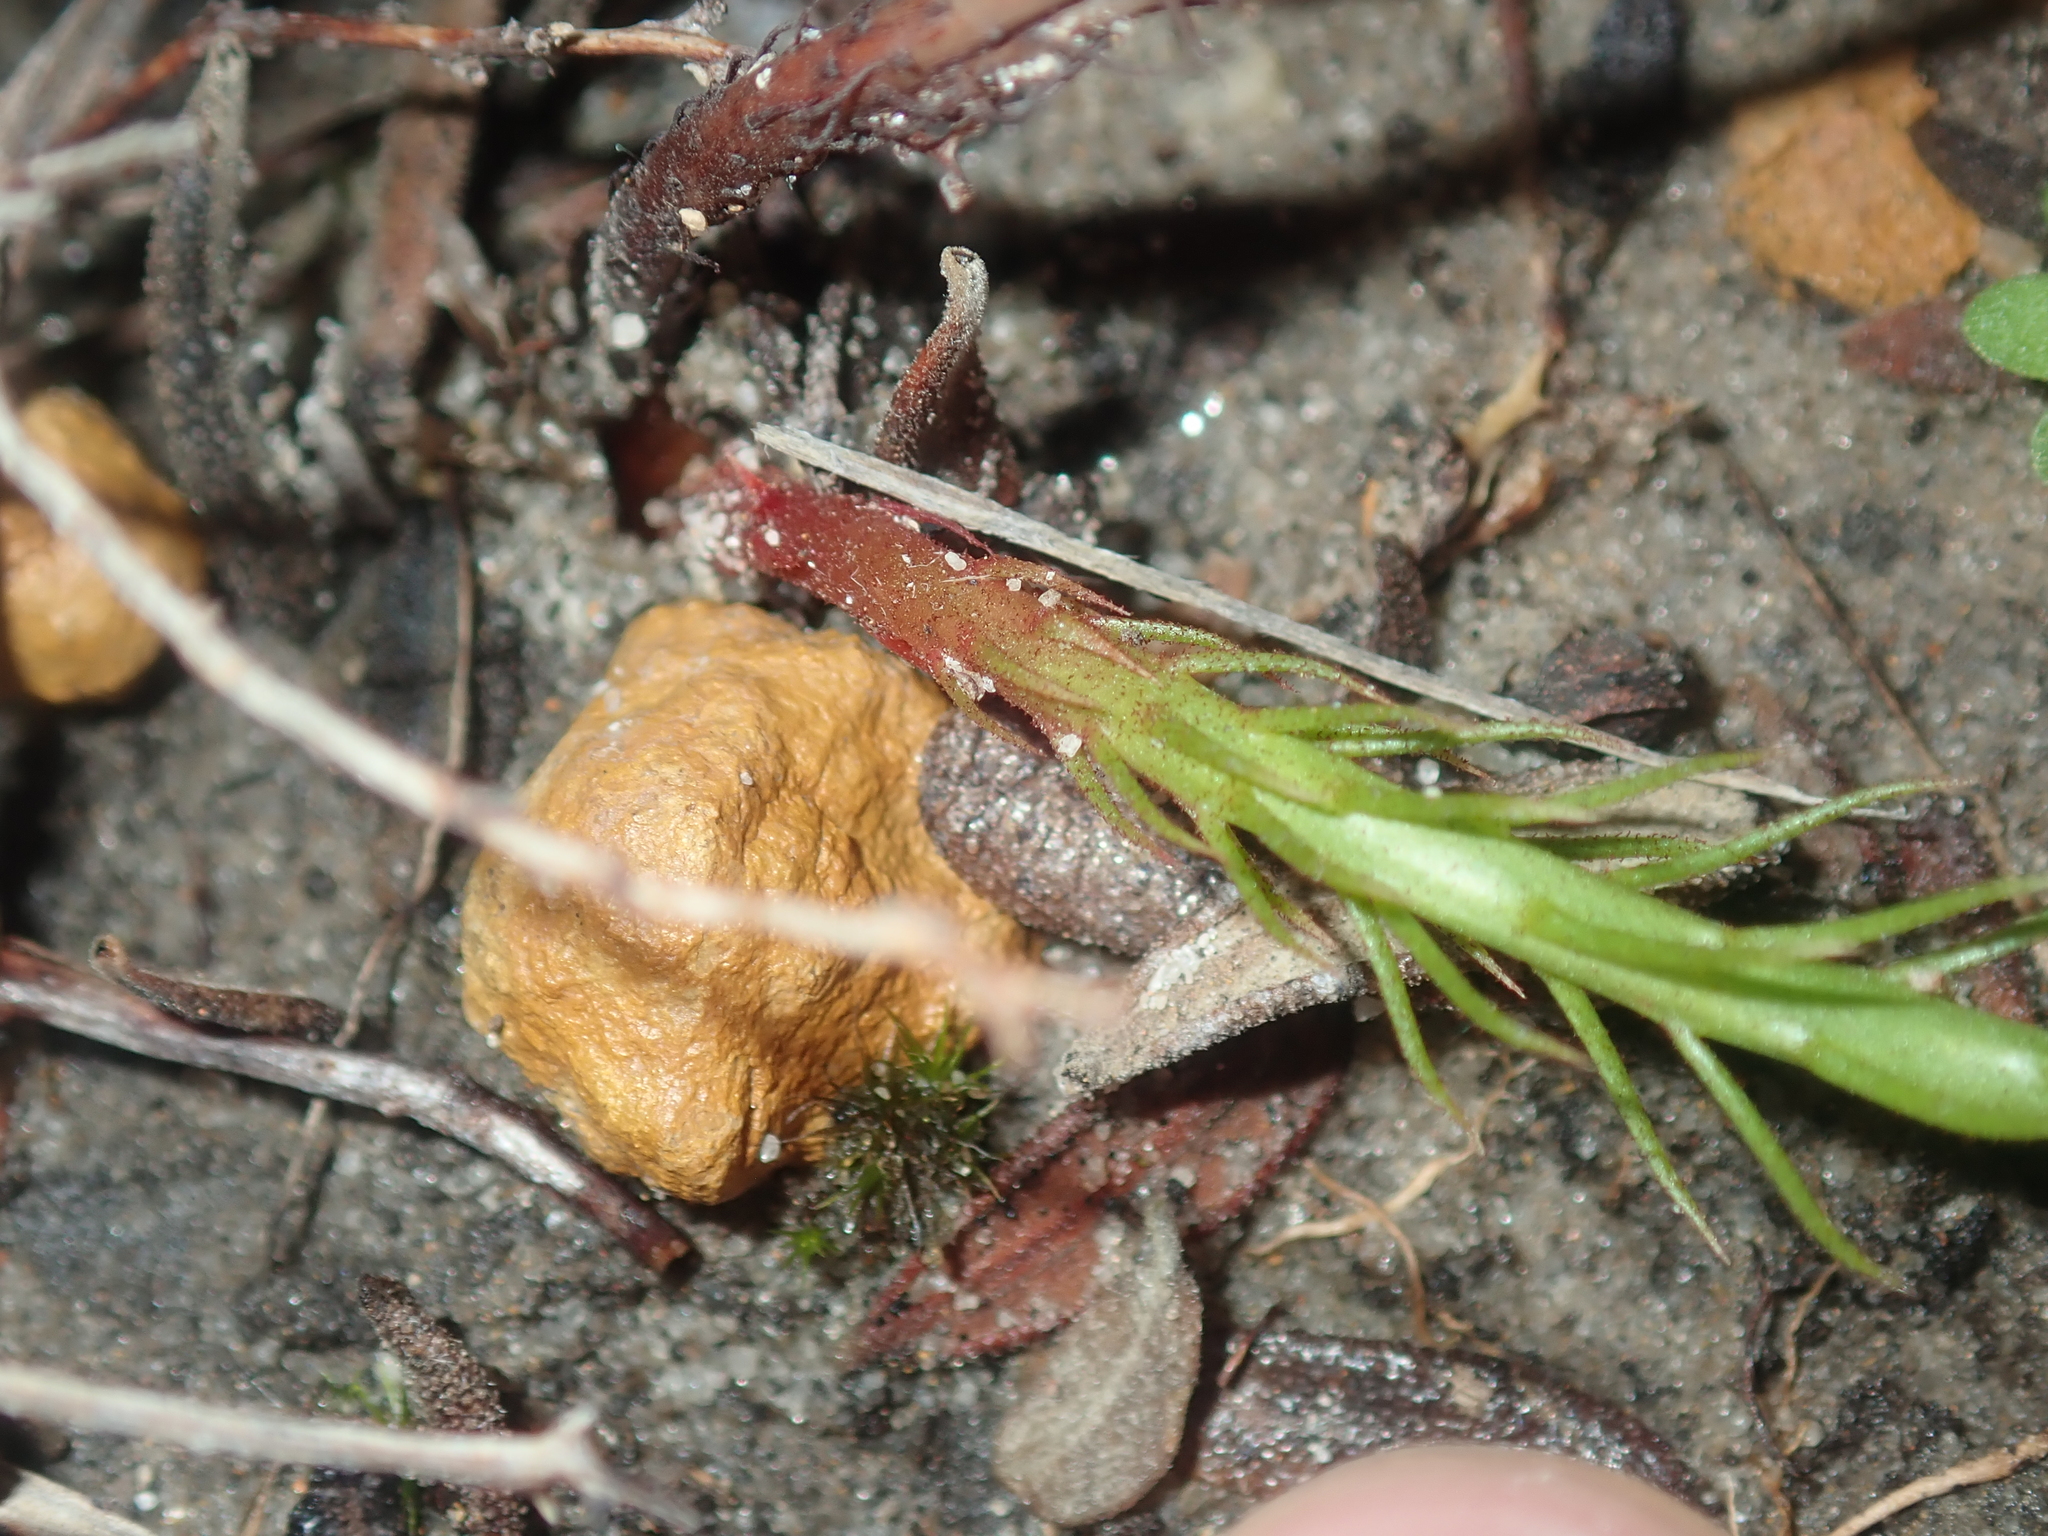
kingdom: Plantae
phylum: Tracheophyta
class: Magnoliopsida
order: Caryophyllales
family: Droseraceae
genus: Drosera
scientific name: Drosera marchantii
